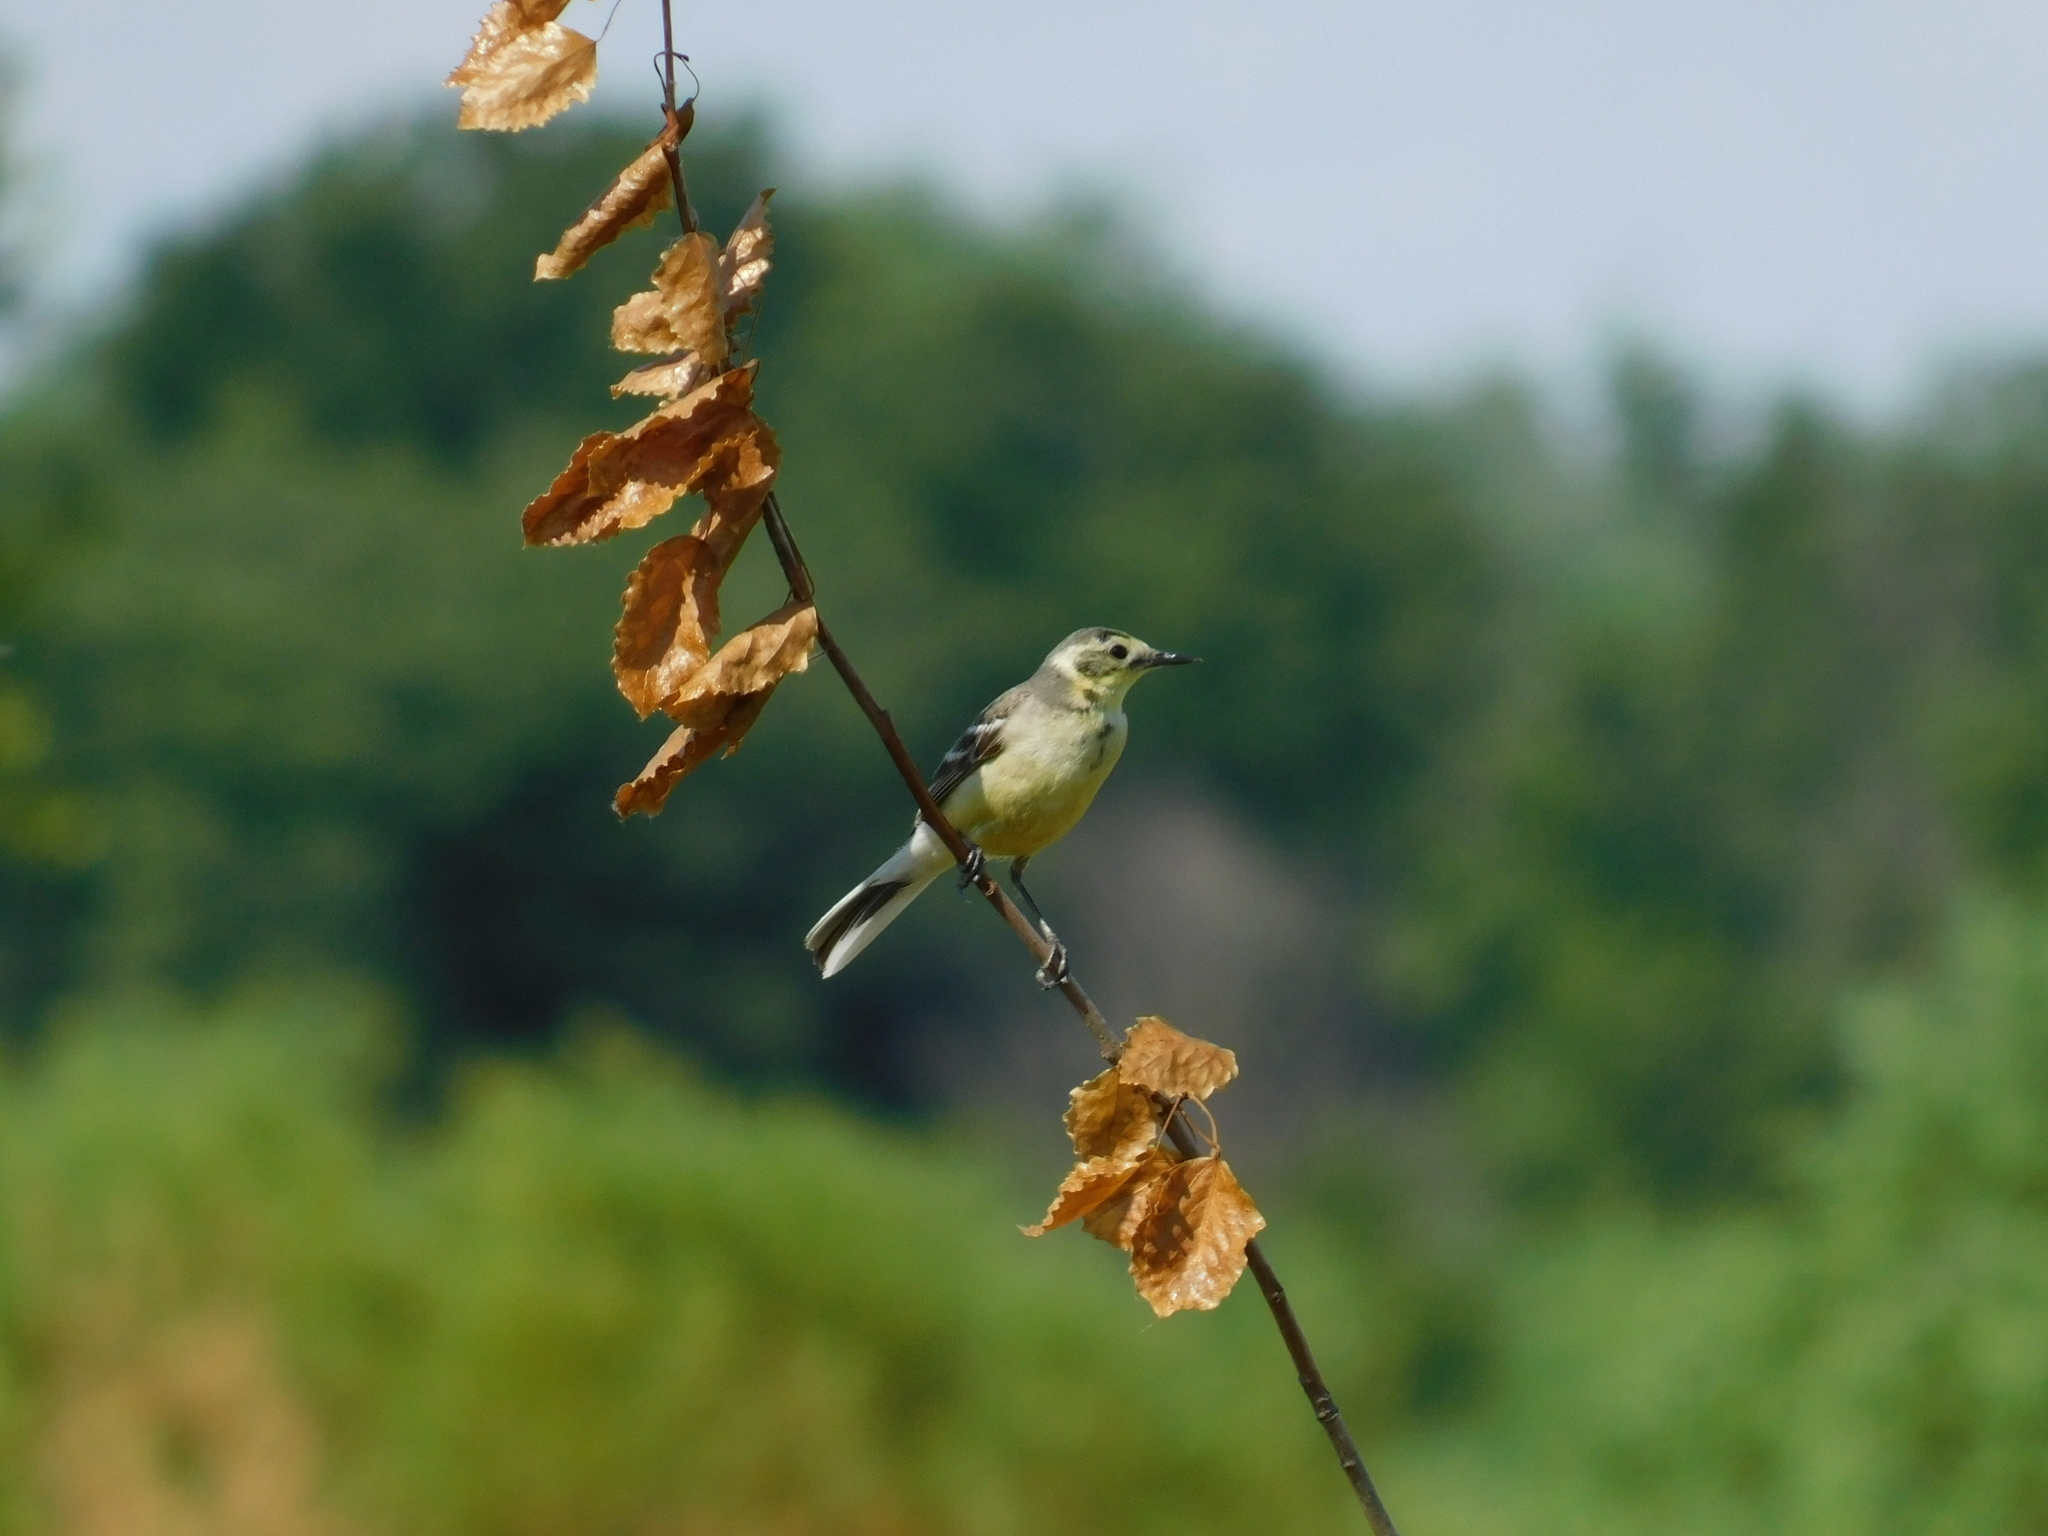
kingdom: Animalia
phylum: Chordata
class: Aves
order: Passeriformes
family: Motacillidae
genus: Motacilla
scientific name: Motacilla citreola
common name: Citrine wagtail
